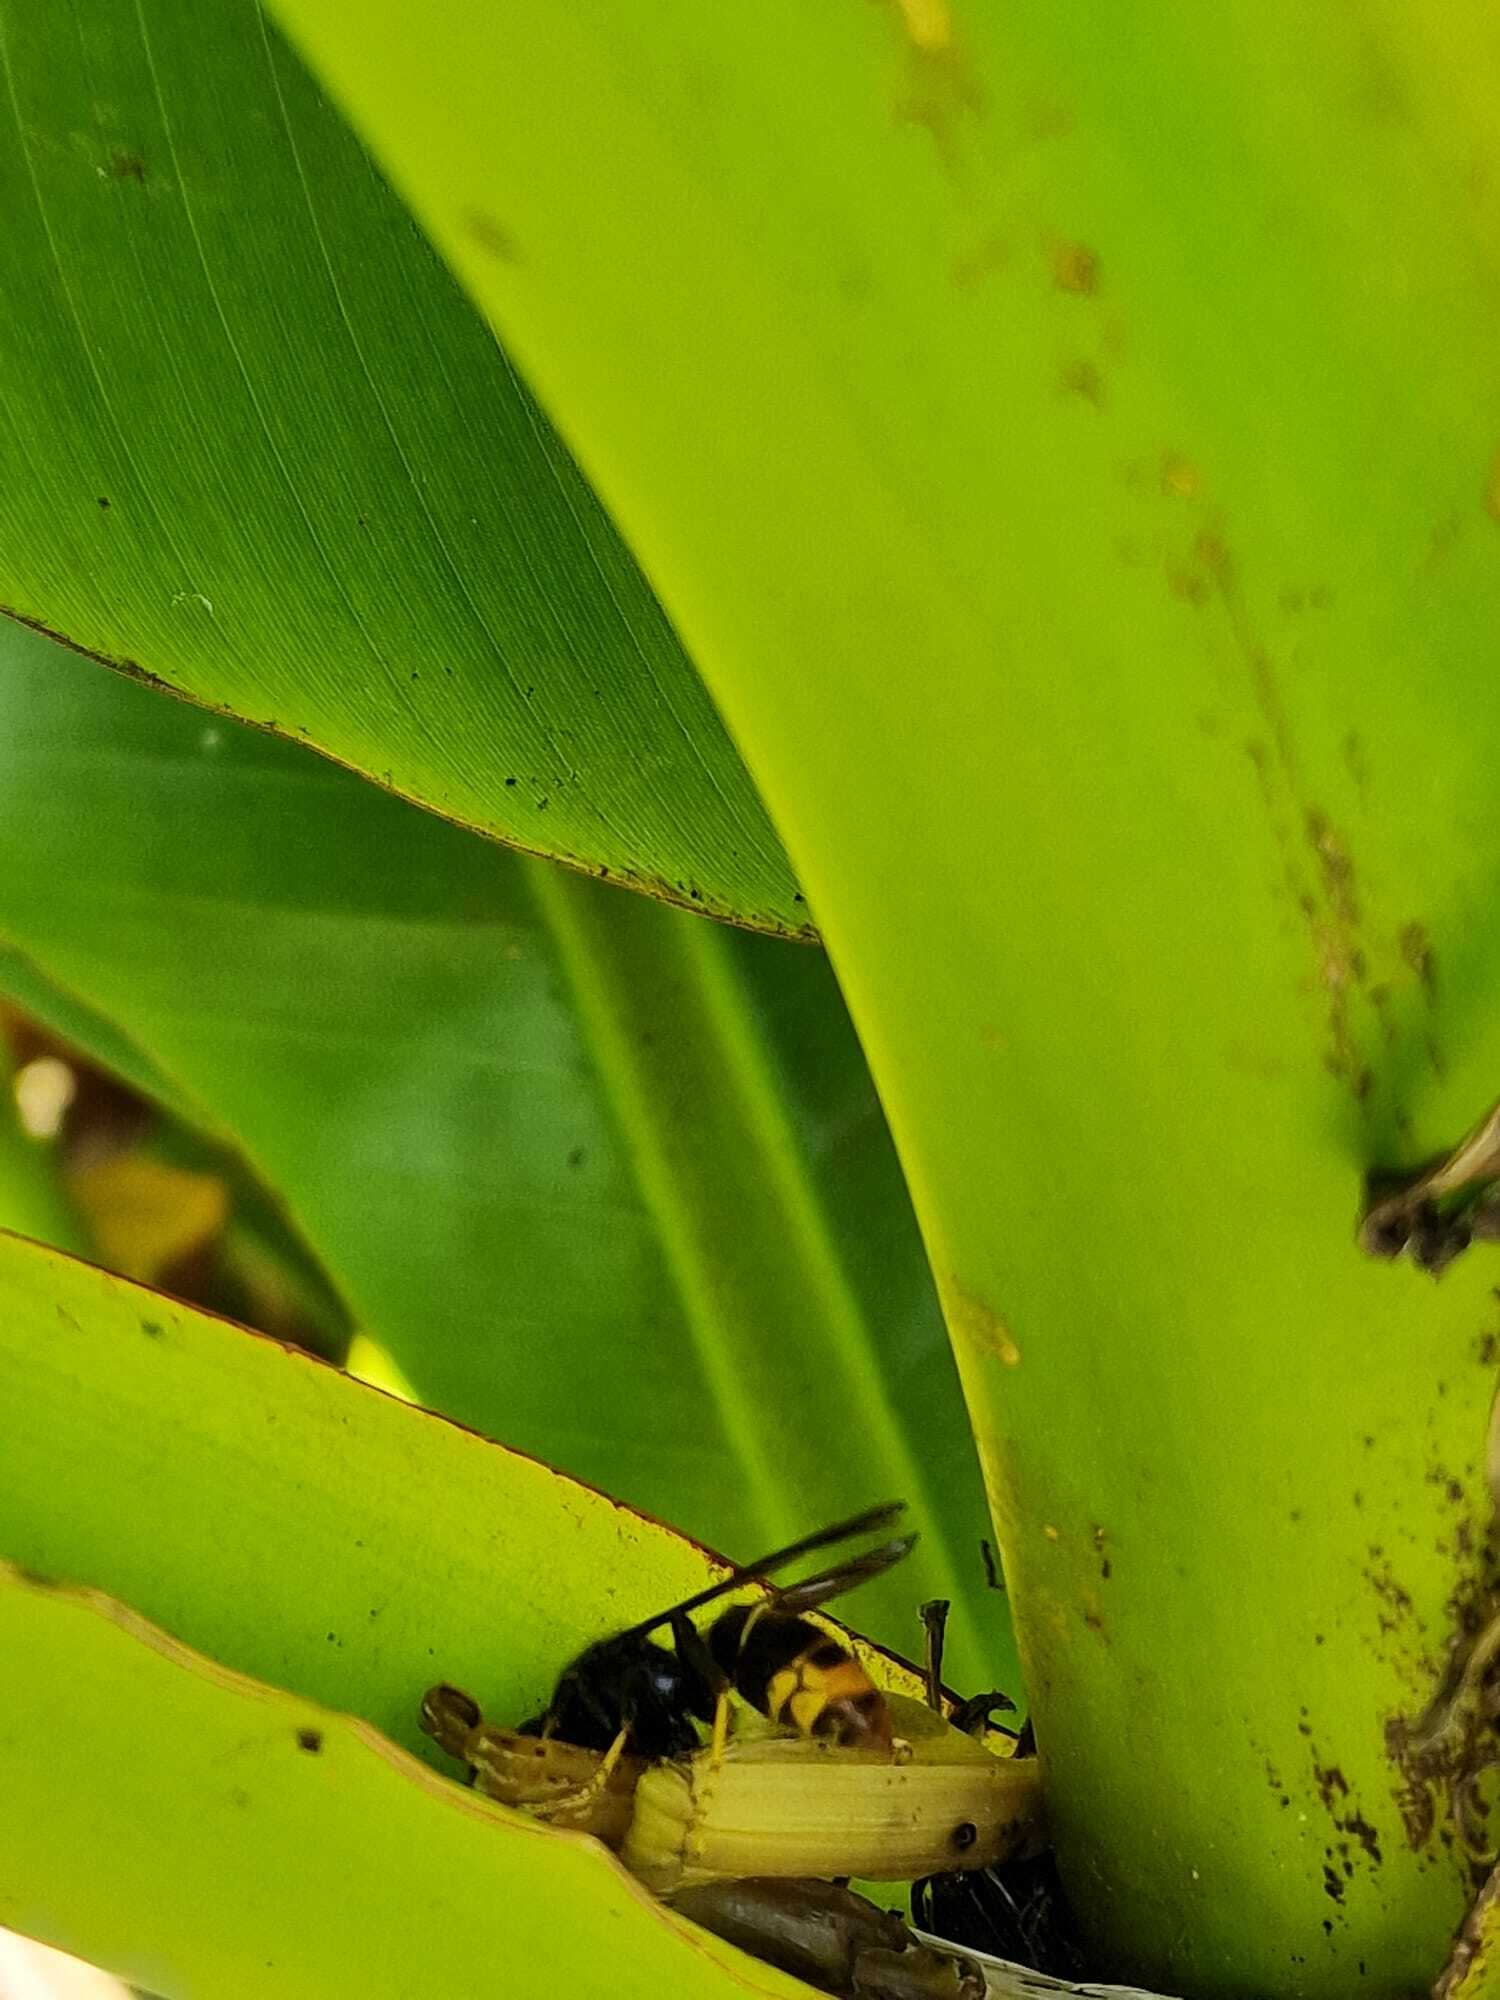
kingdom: Animalia
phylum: Arthropoda
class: Insecta
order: Hymenoptera
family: Vespidae
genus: Vespa
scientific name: Vespa velutina
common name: Asian hornet
